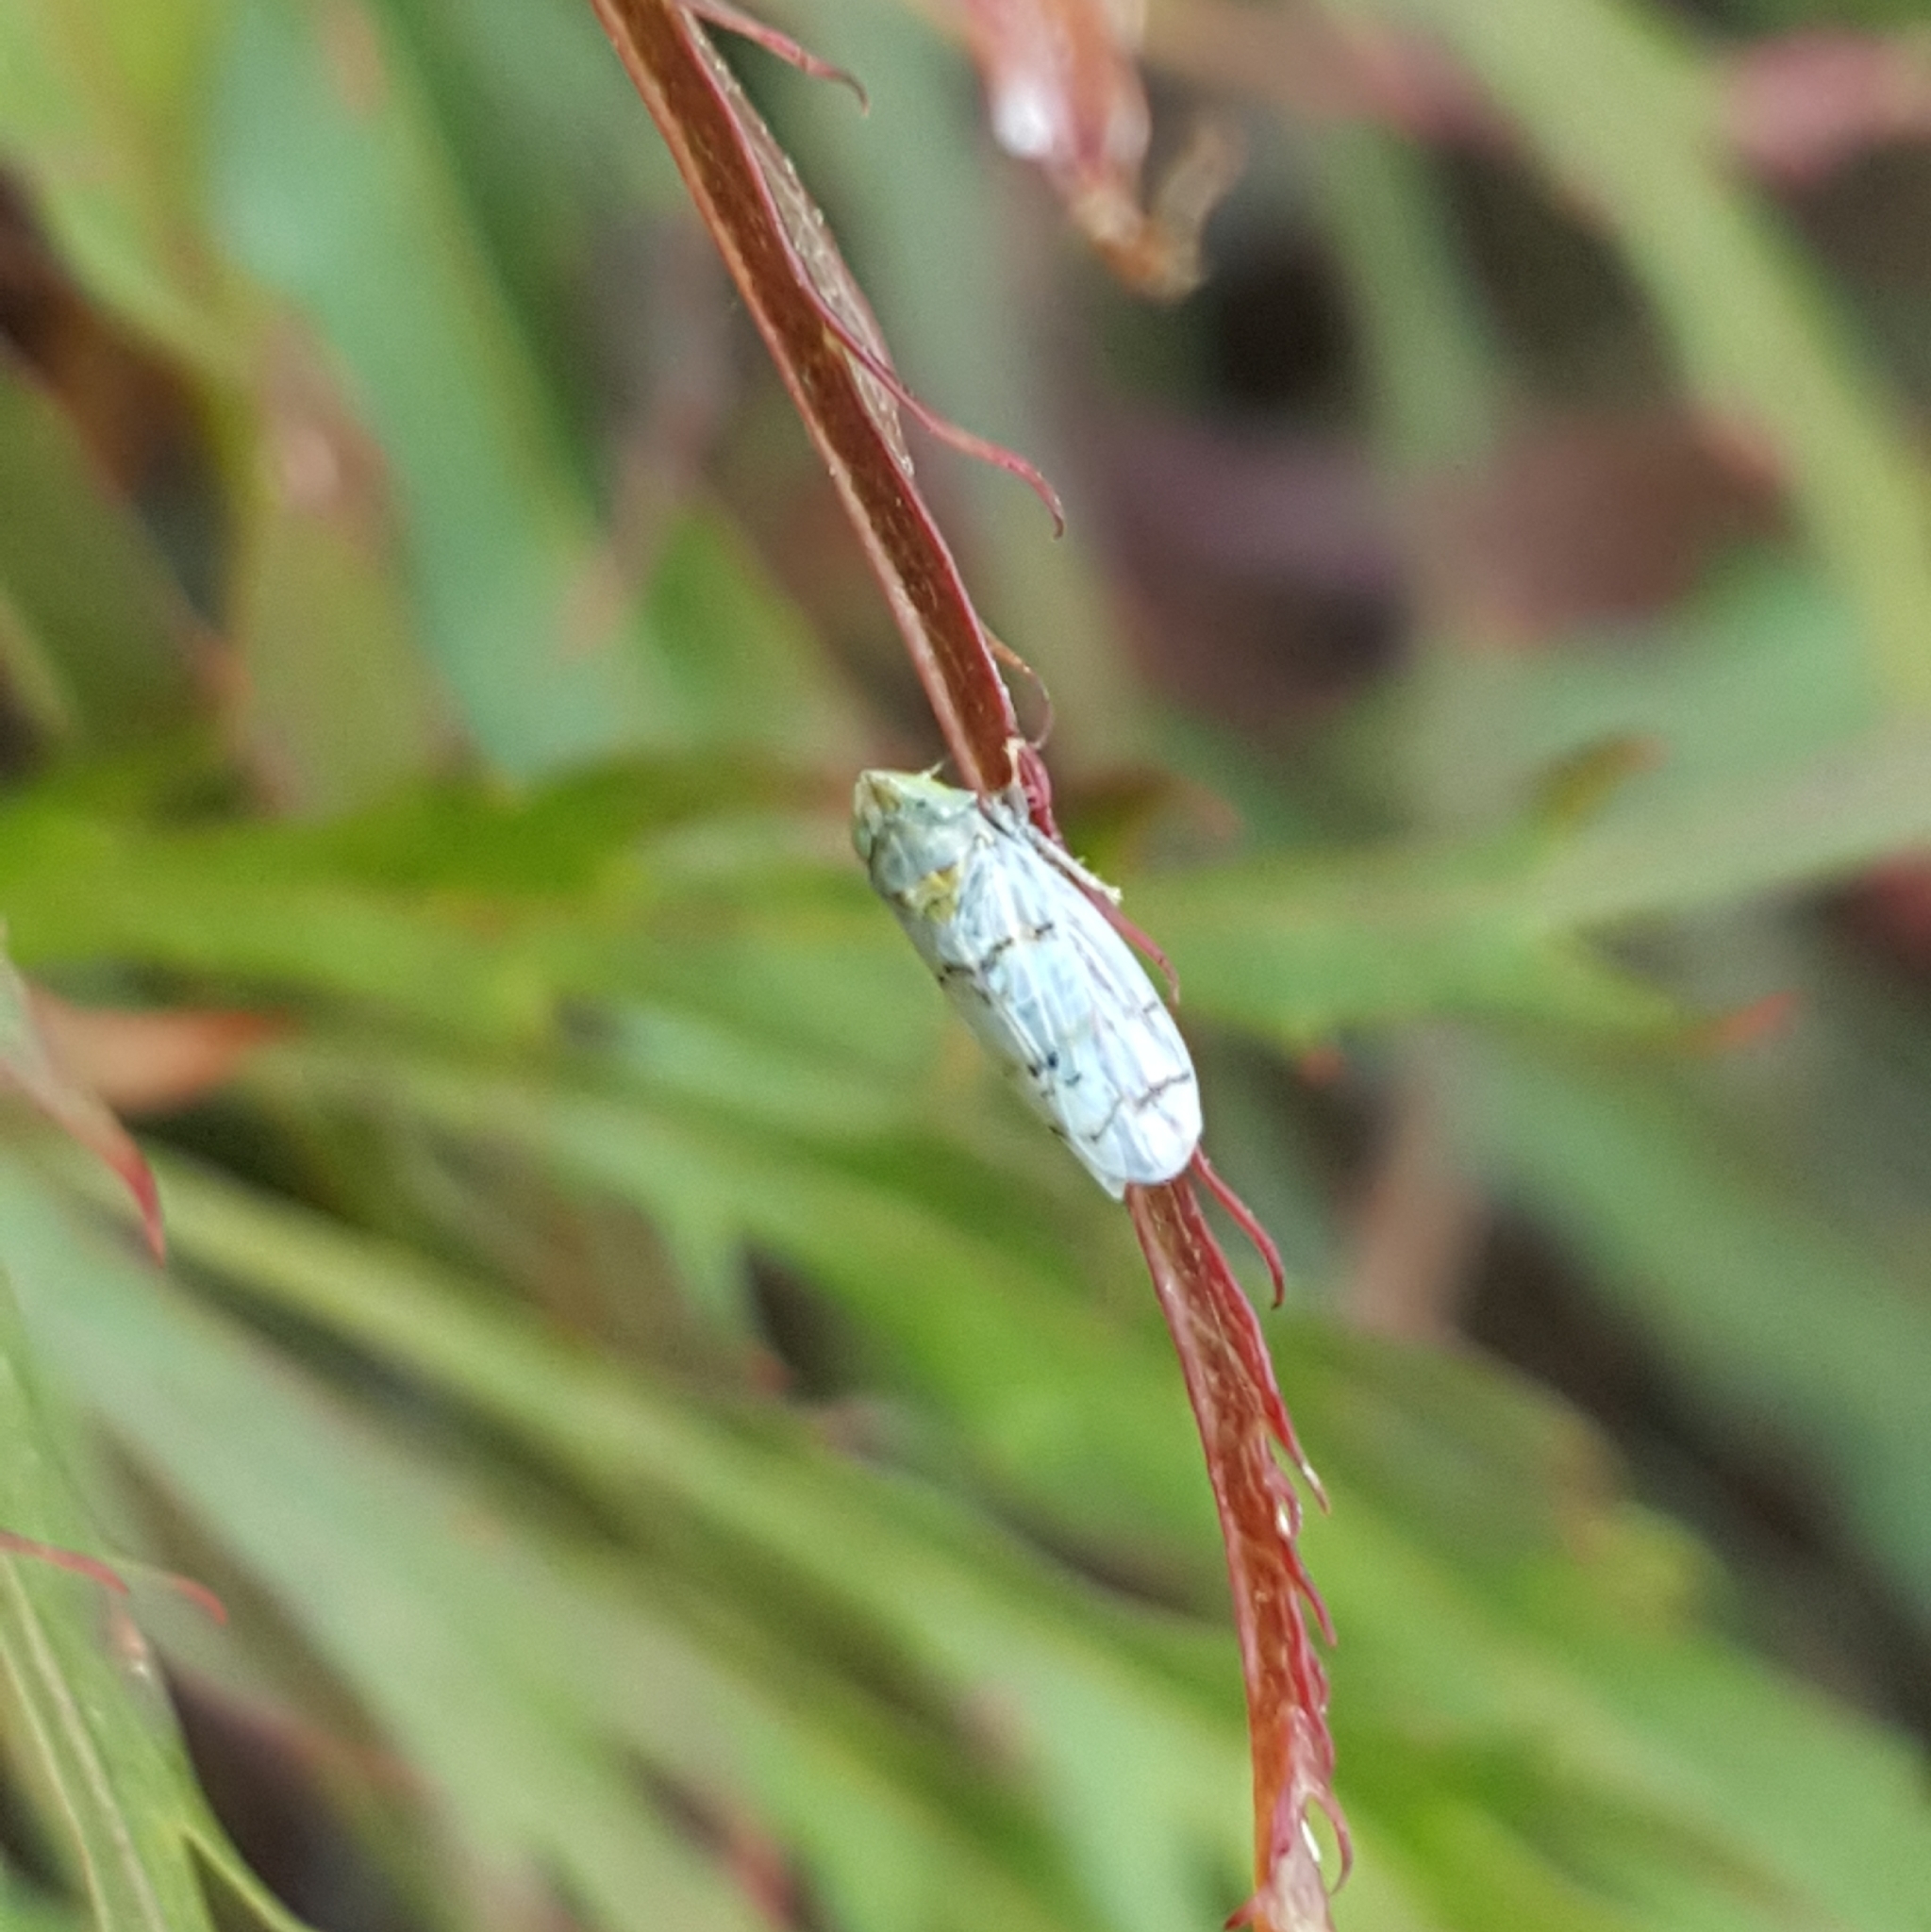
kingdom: Animalia
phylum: Arthropoda
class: Insecta
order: Hemiptera
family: Cicadellidae
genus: Japananus
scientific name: Japananus hyalinus
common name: The japanese maple leafhopper
